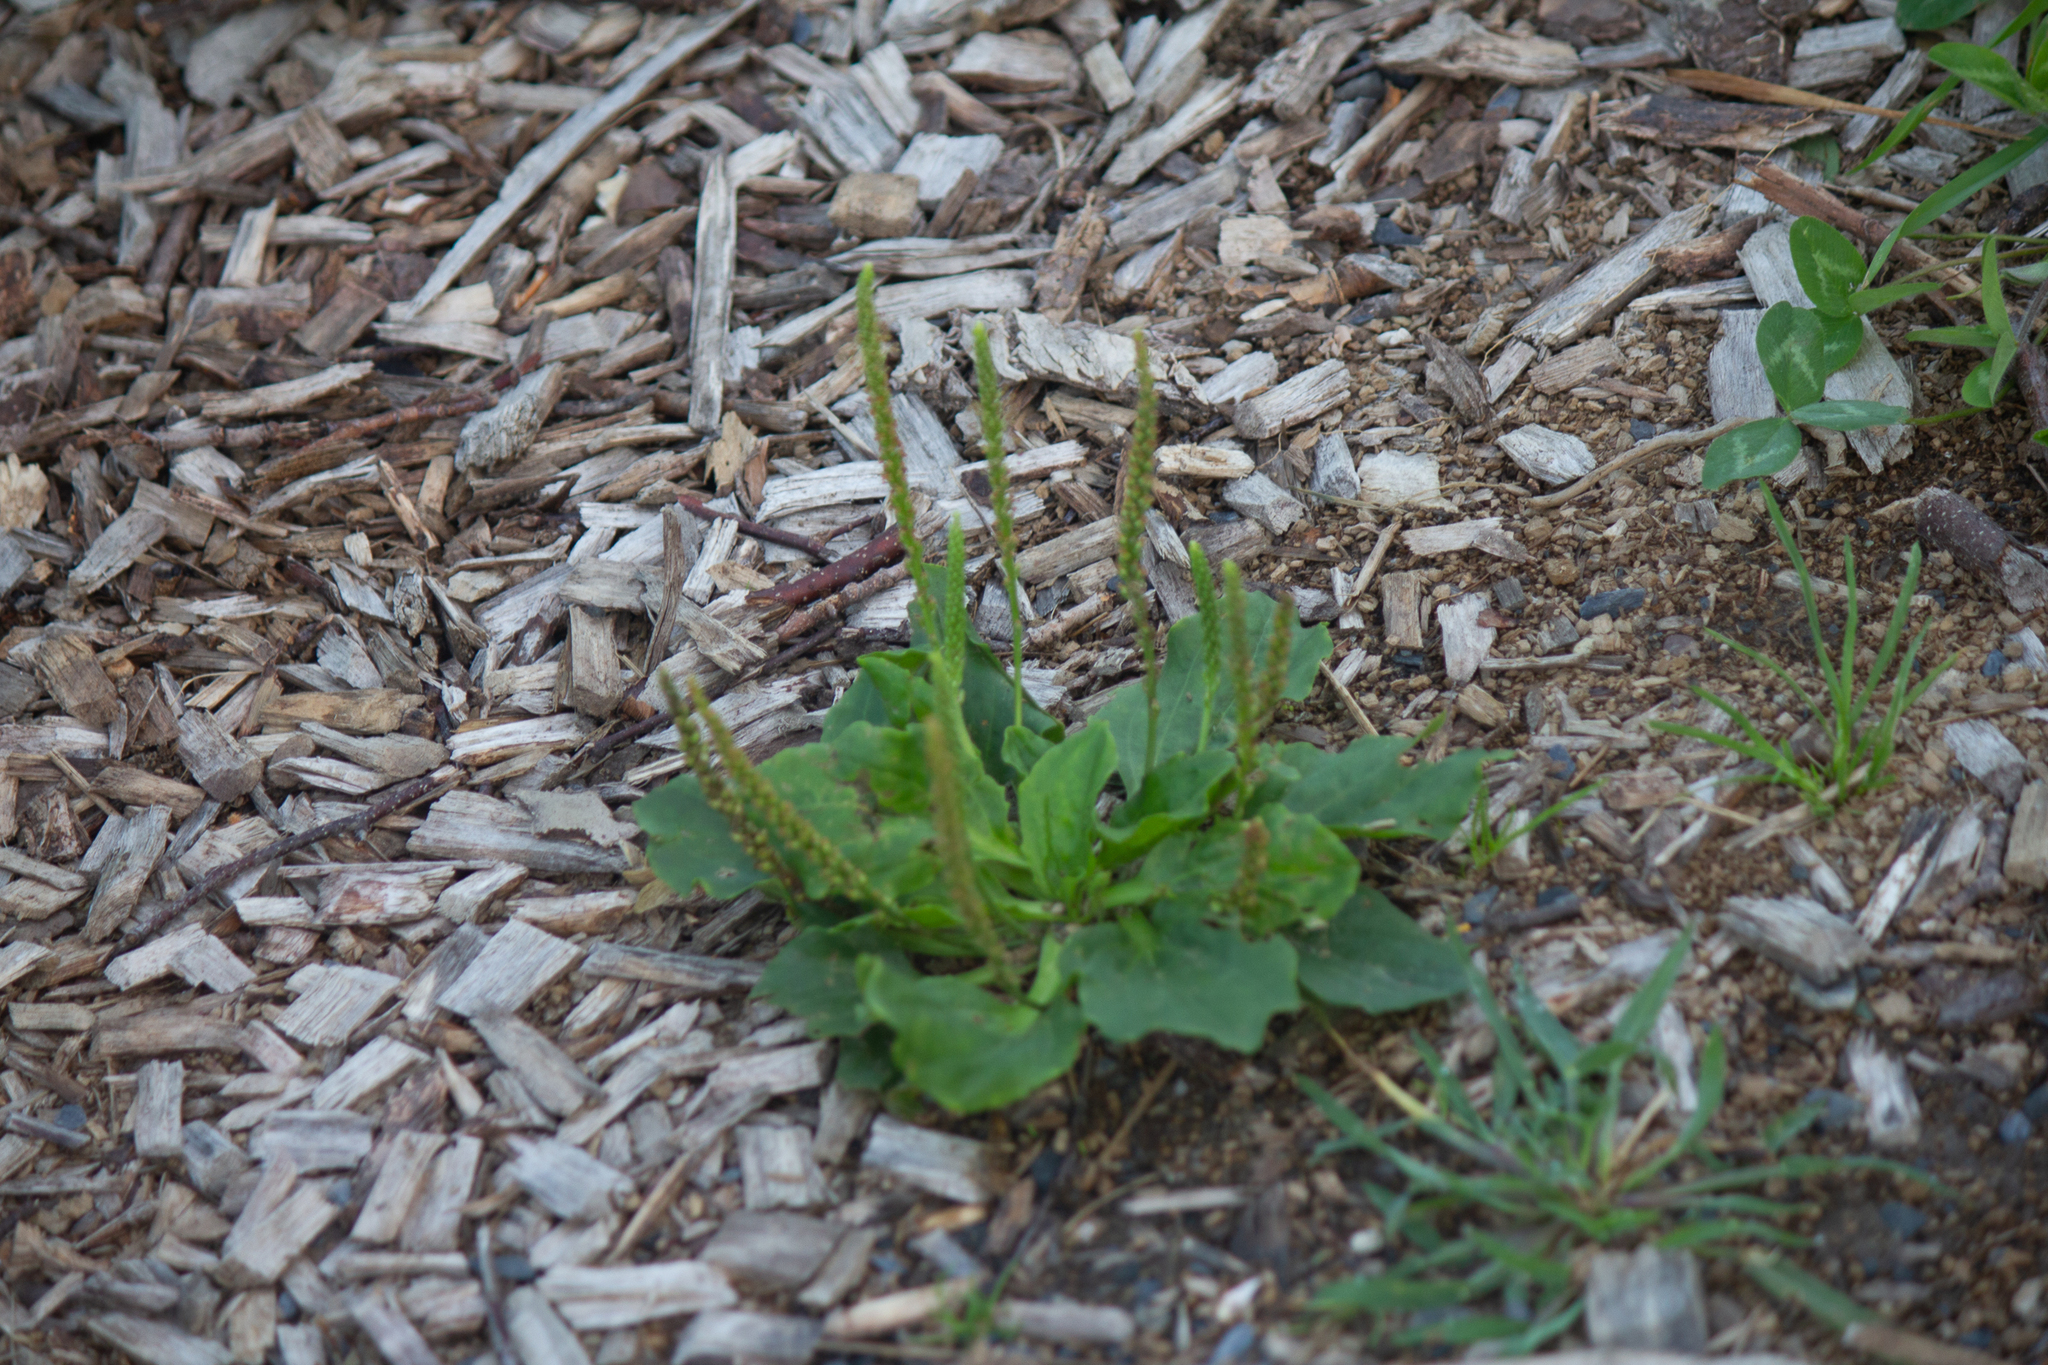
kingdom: Plantae
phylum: Tracheophyta
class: Magnoliopsida
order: Lamiales
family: Plantaginaceae
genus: Plantago
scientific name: Plantago major
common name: Common plantain
